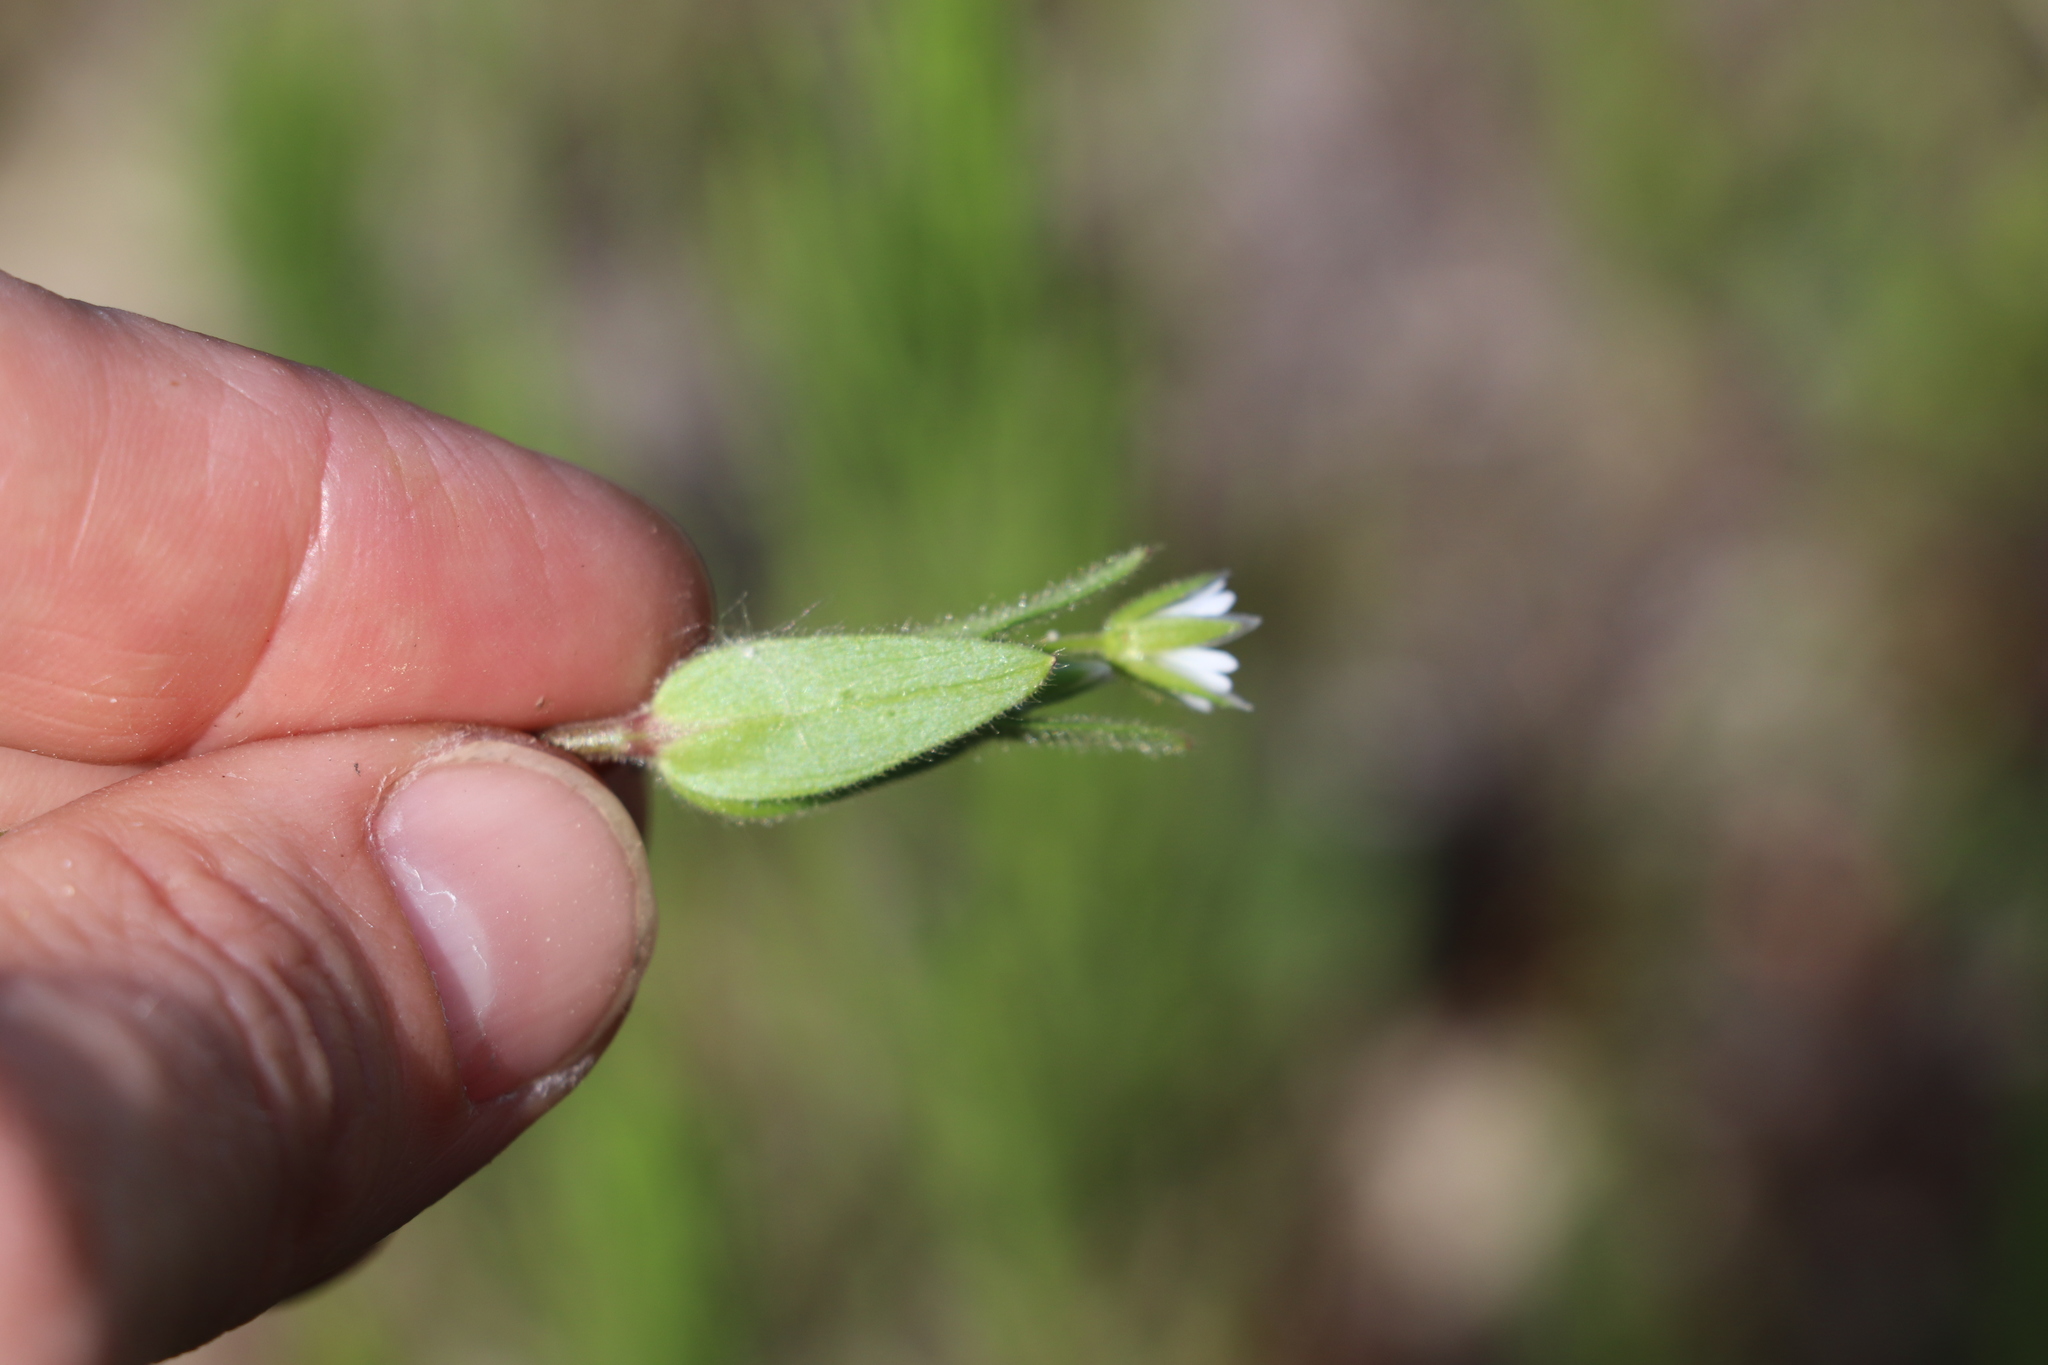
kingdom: Plantae
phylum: Tracheophyta
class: Magnoliopsida
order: Caryophyllales
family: Caryophyllaceae
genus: Cerastium
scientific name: Cerastium holosteoides
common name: Big chickweed
